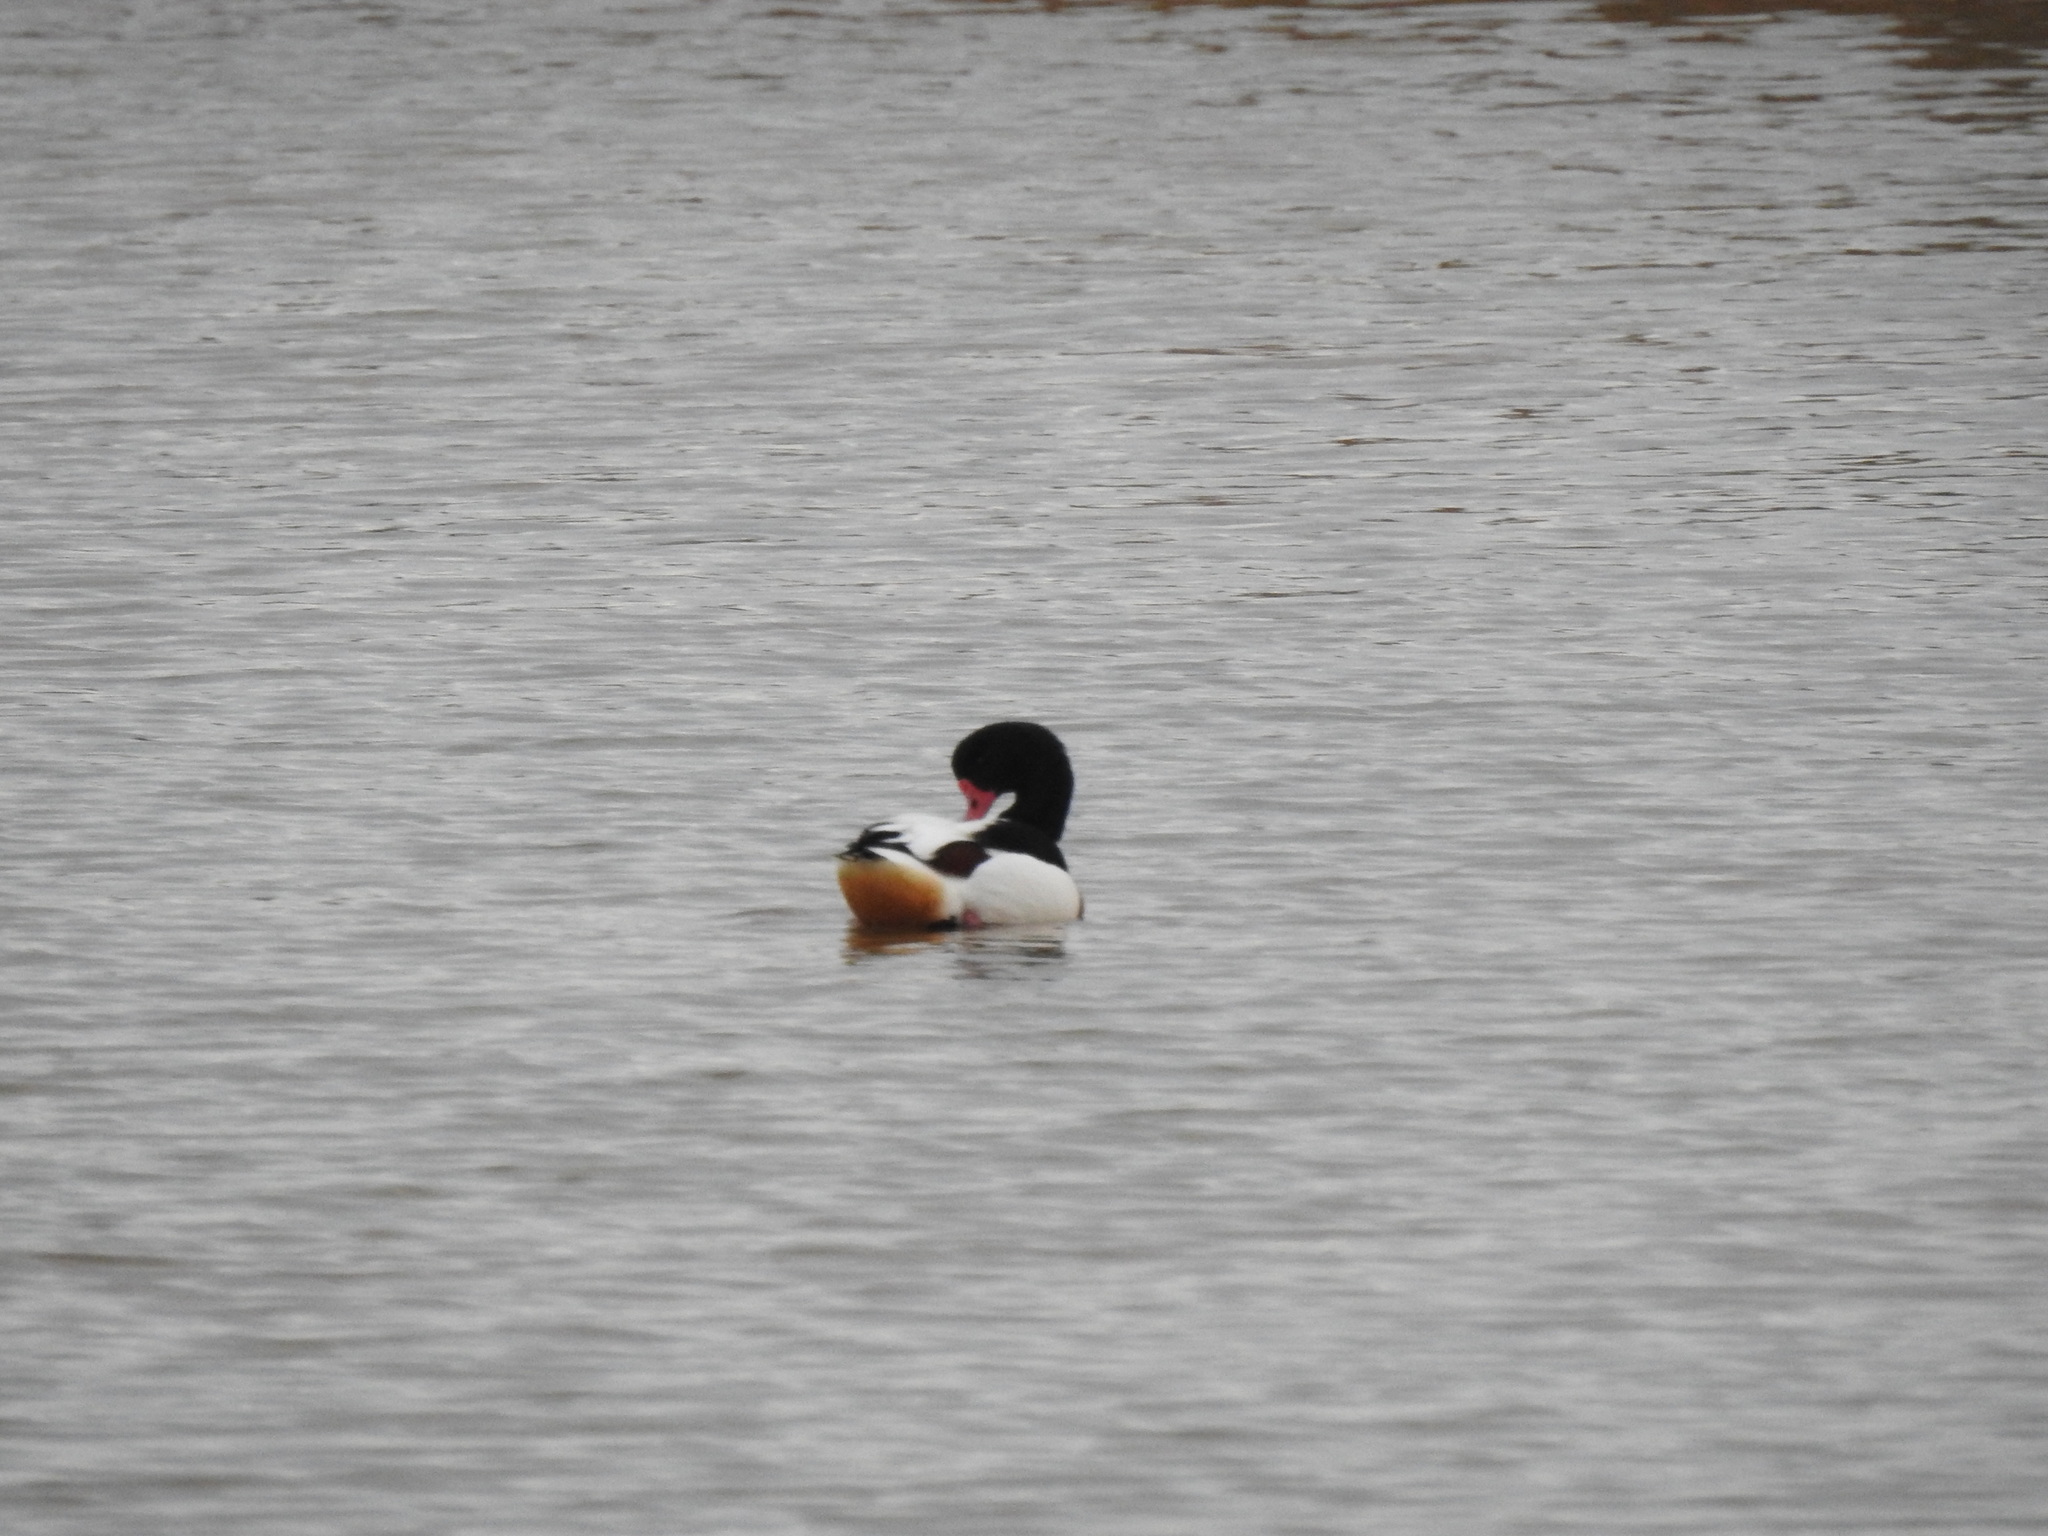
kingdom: Animalia
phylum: Chordata
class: Aves
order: Anseriformes
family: Anatidae
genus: Tadorna
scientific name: Tadorna tadorna
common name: Common shelduck
